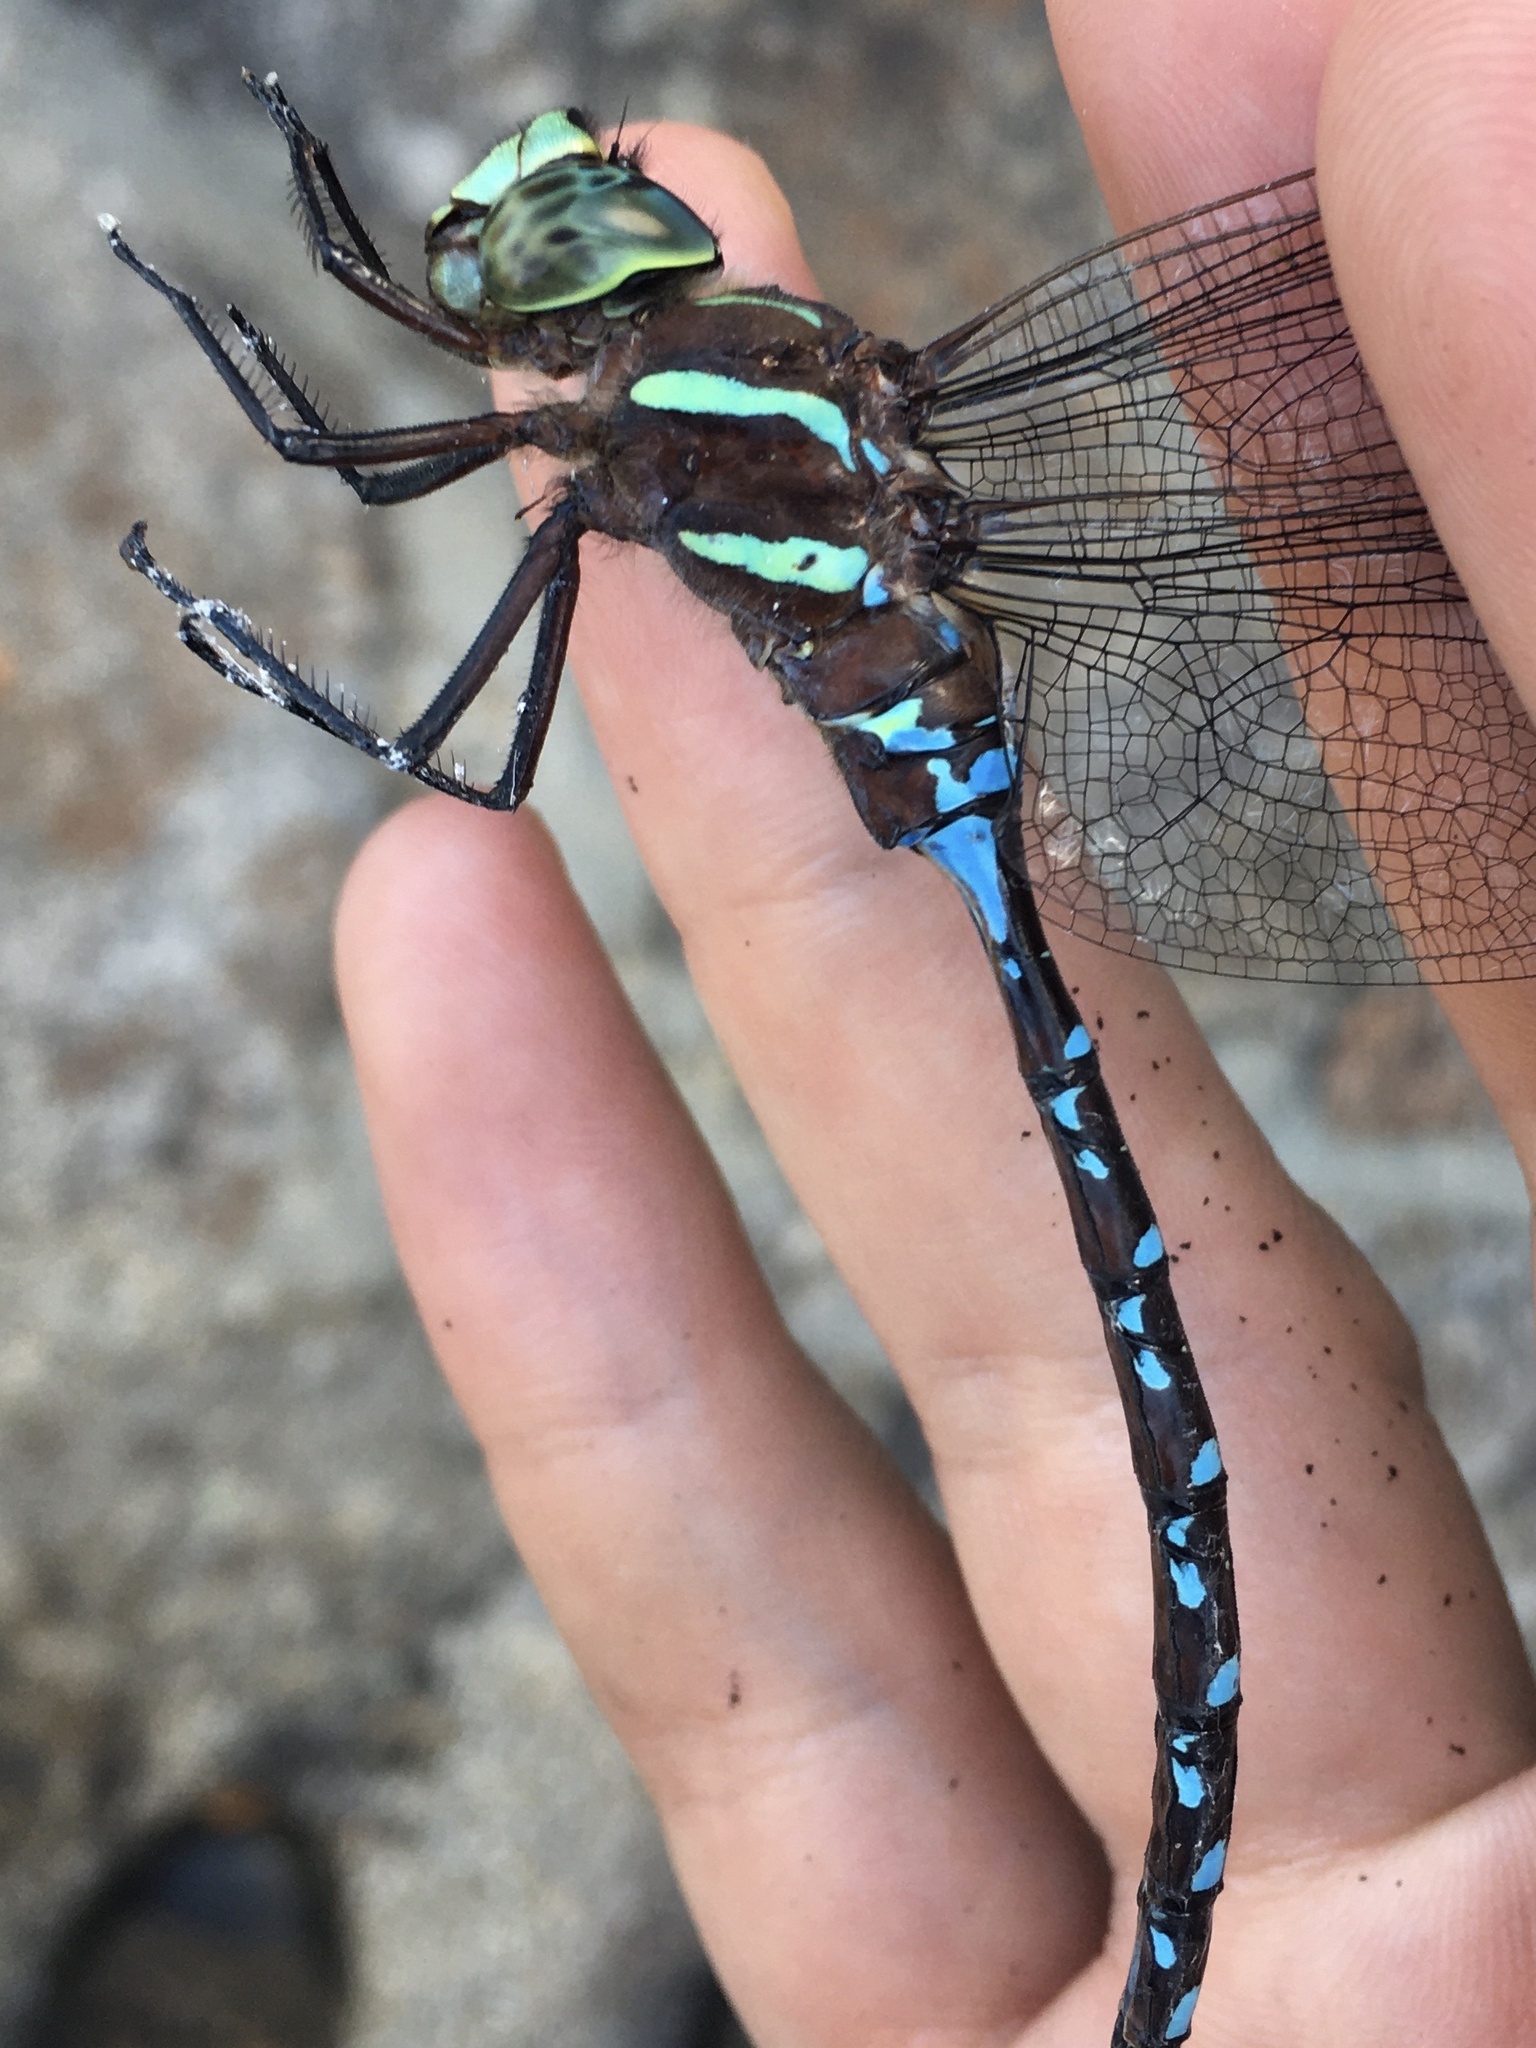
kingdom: Animalia
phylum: Arthropoda
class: Insecta
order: Odonata
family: Aeshnidae
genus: Aeshna
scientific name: Aeshna tuberculifera
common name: Aeschne à tubercules
